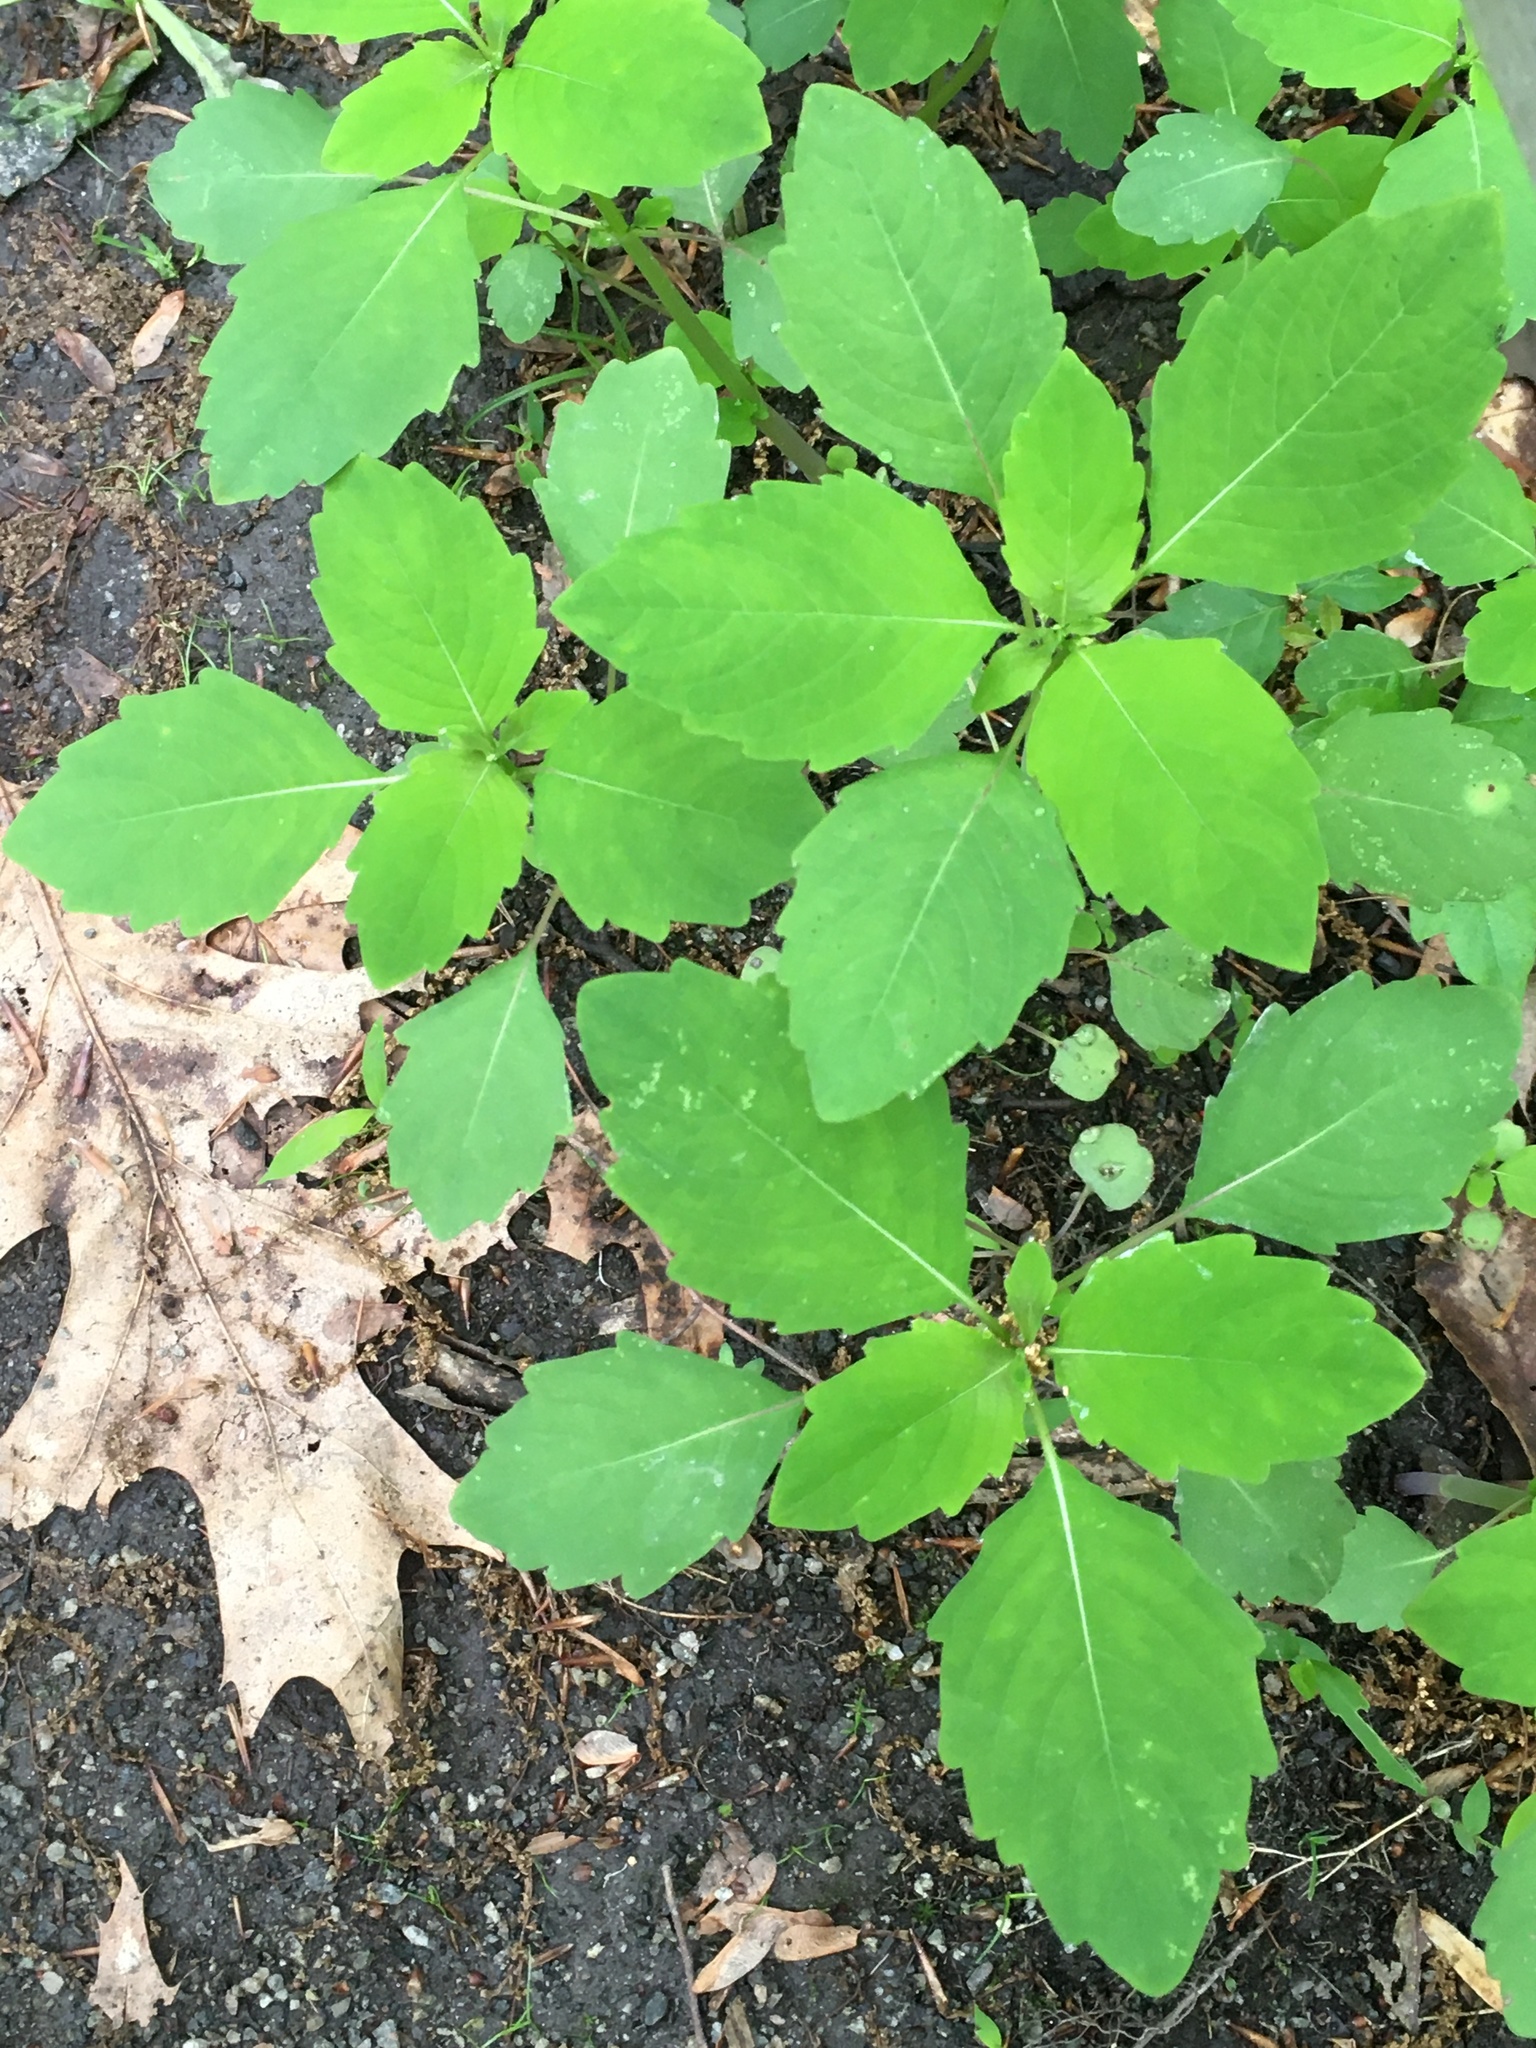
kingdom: Plantae
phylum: Tracheophyta
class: Magnoliopsida
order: Ericales
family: Balsaminaceae
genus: Impatiens
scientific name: Impatiens capensis
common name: Orange balsam
